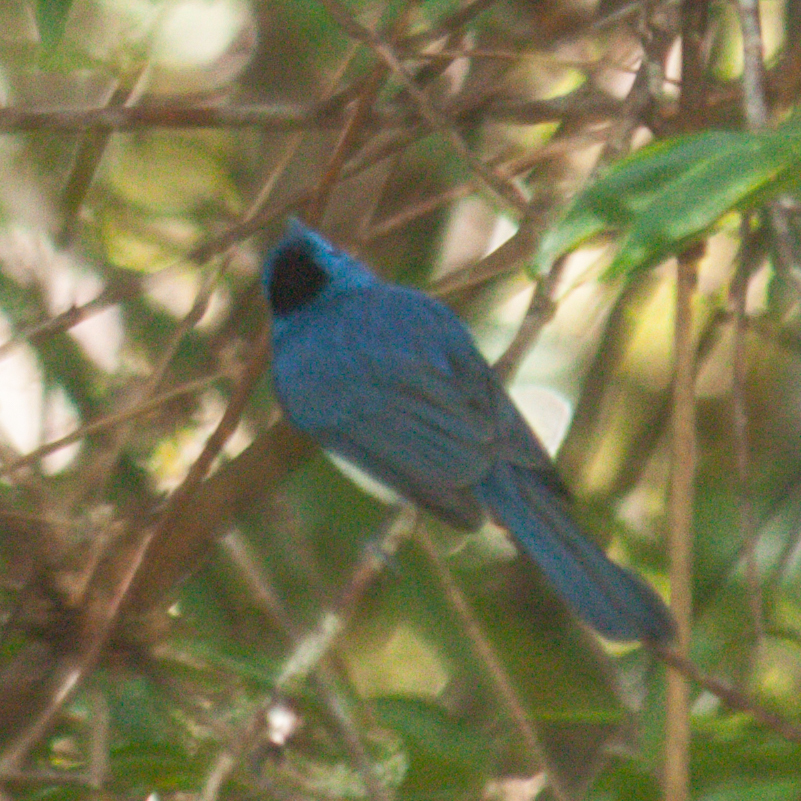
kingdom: Animalia
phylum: Chordata
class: Aves
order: Passeriformes
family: Monarchidae
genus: Hypothymis
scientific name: Hypothymis azurea
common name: Black-naped monarch
